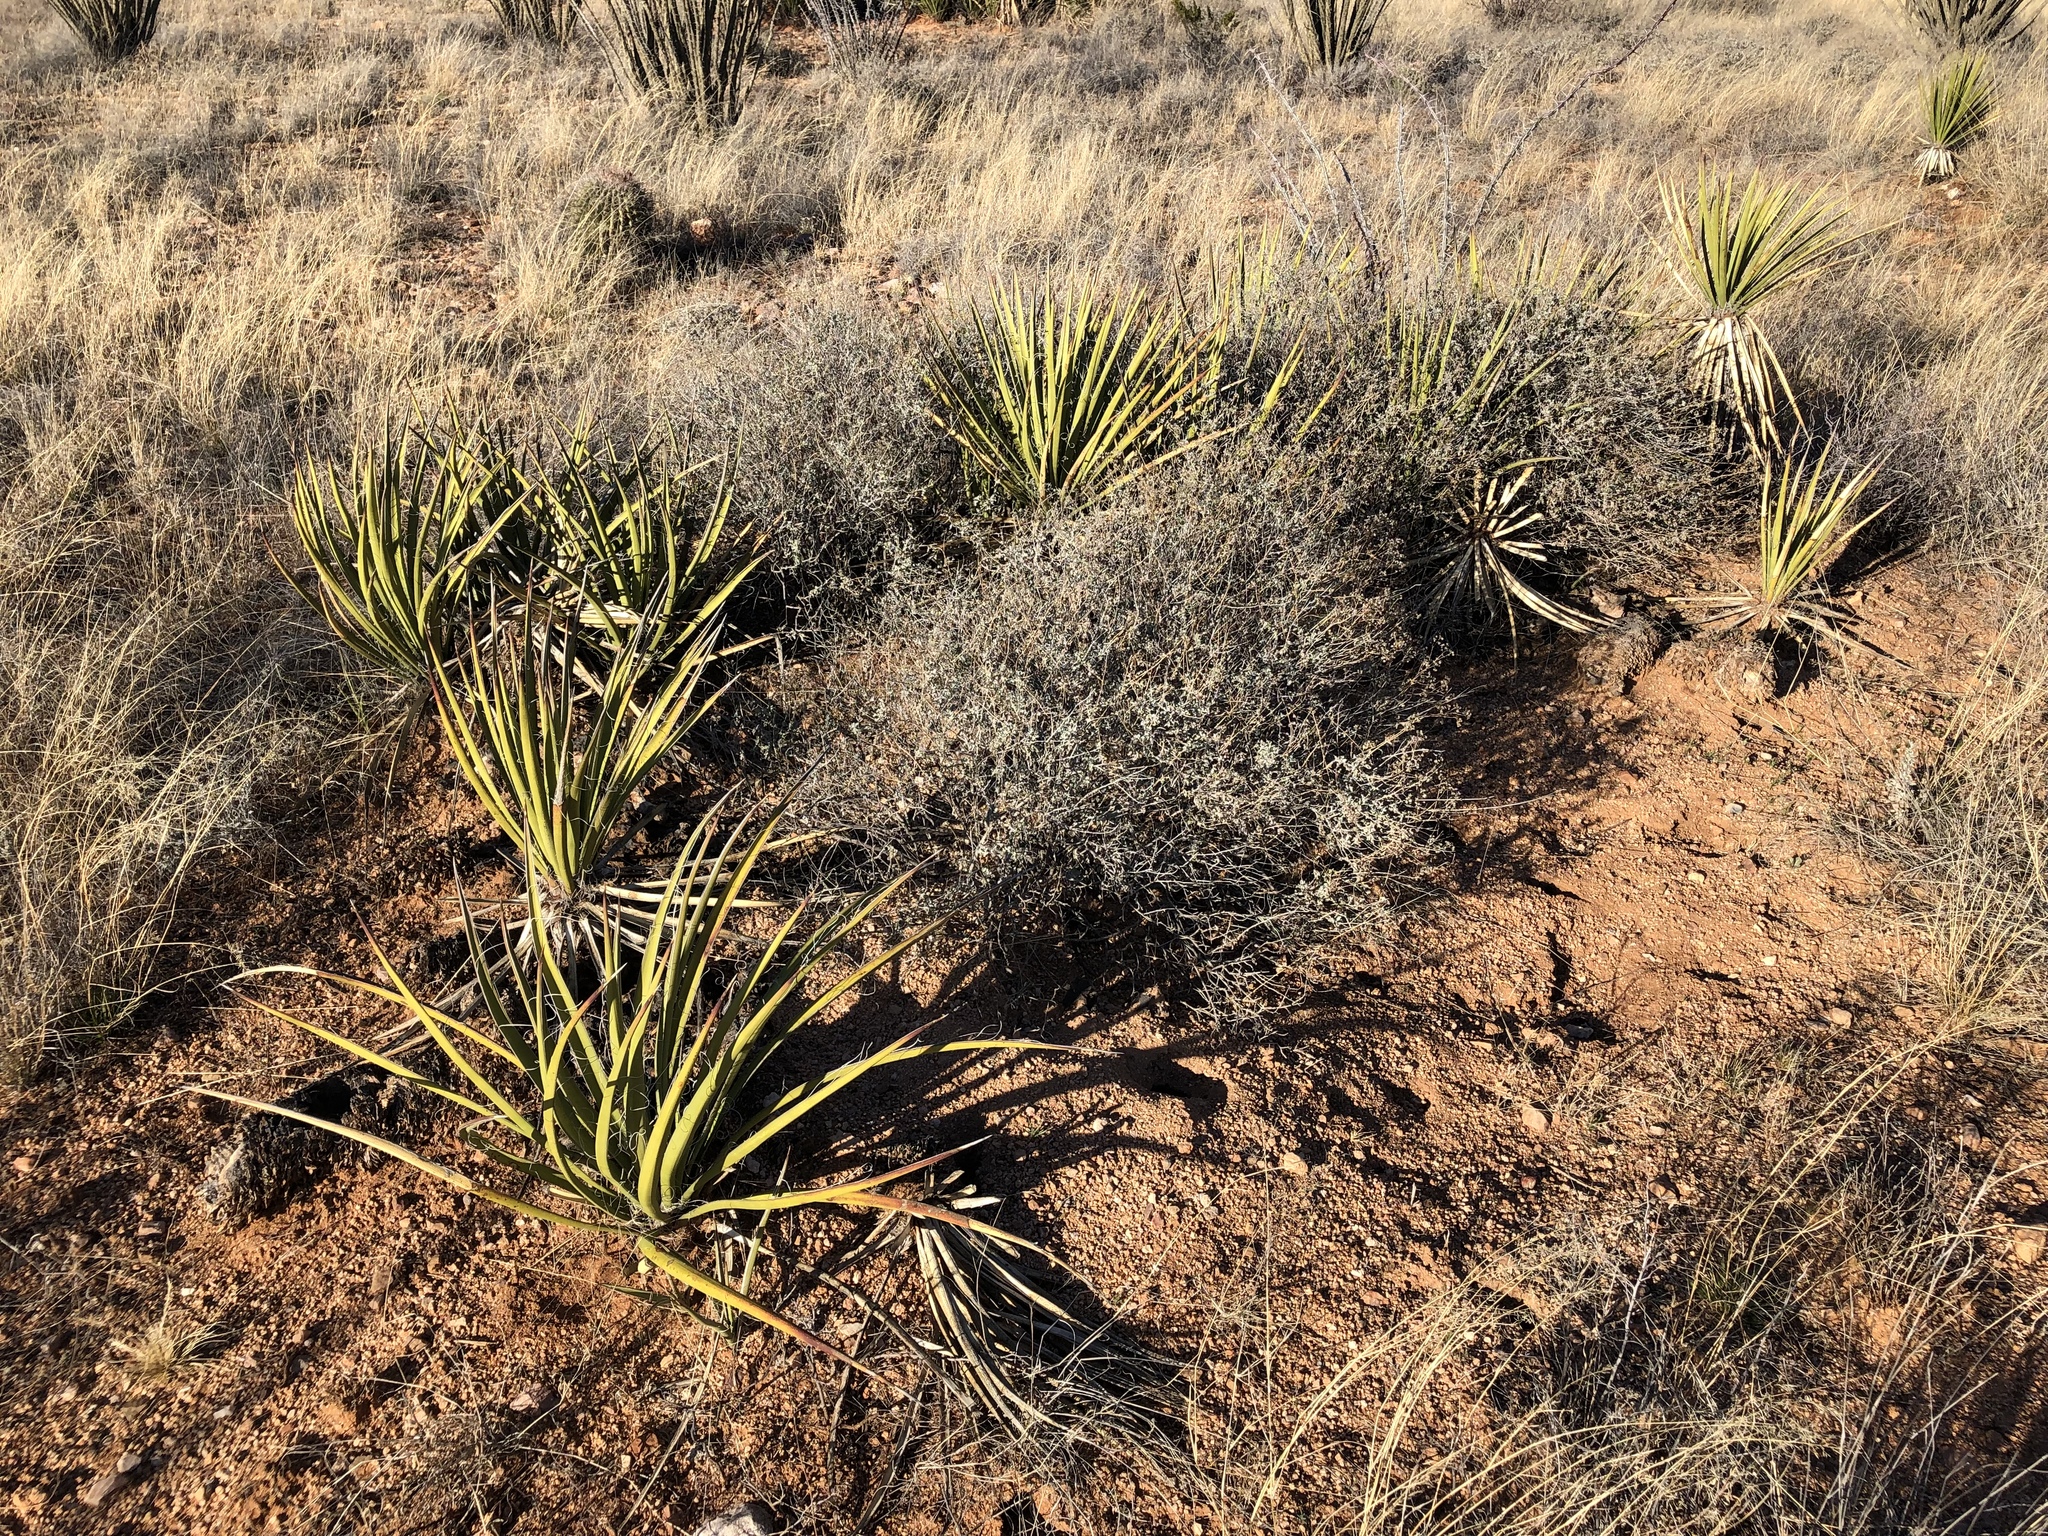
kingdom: Plantae
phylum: Tracheophyta
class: Liliopsida
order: Asparagales
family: Asparagaceae
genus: Yucca
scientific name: Yucca baccata
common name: Banana yucca
